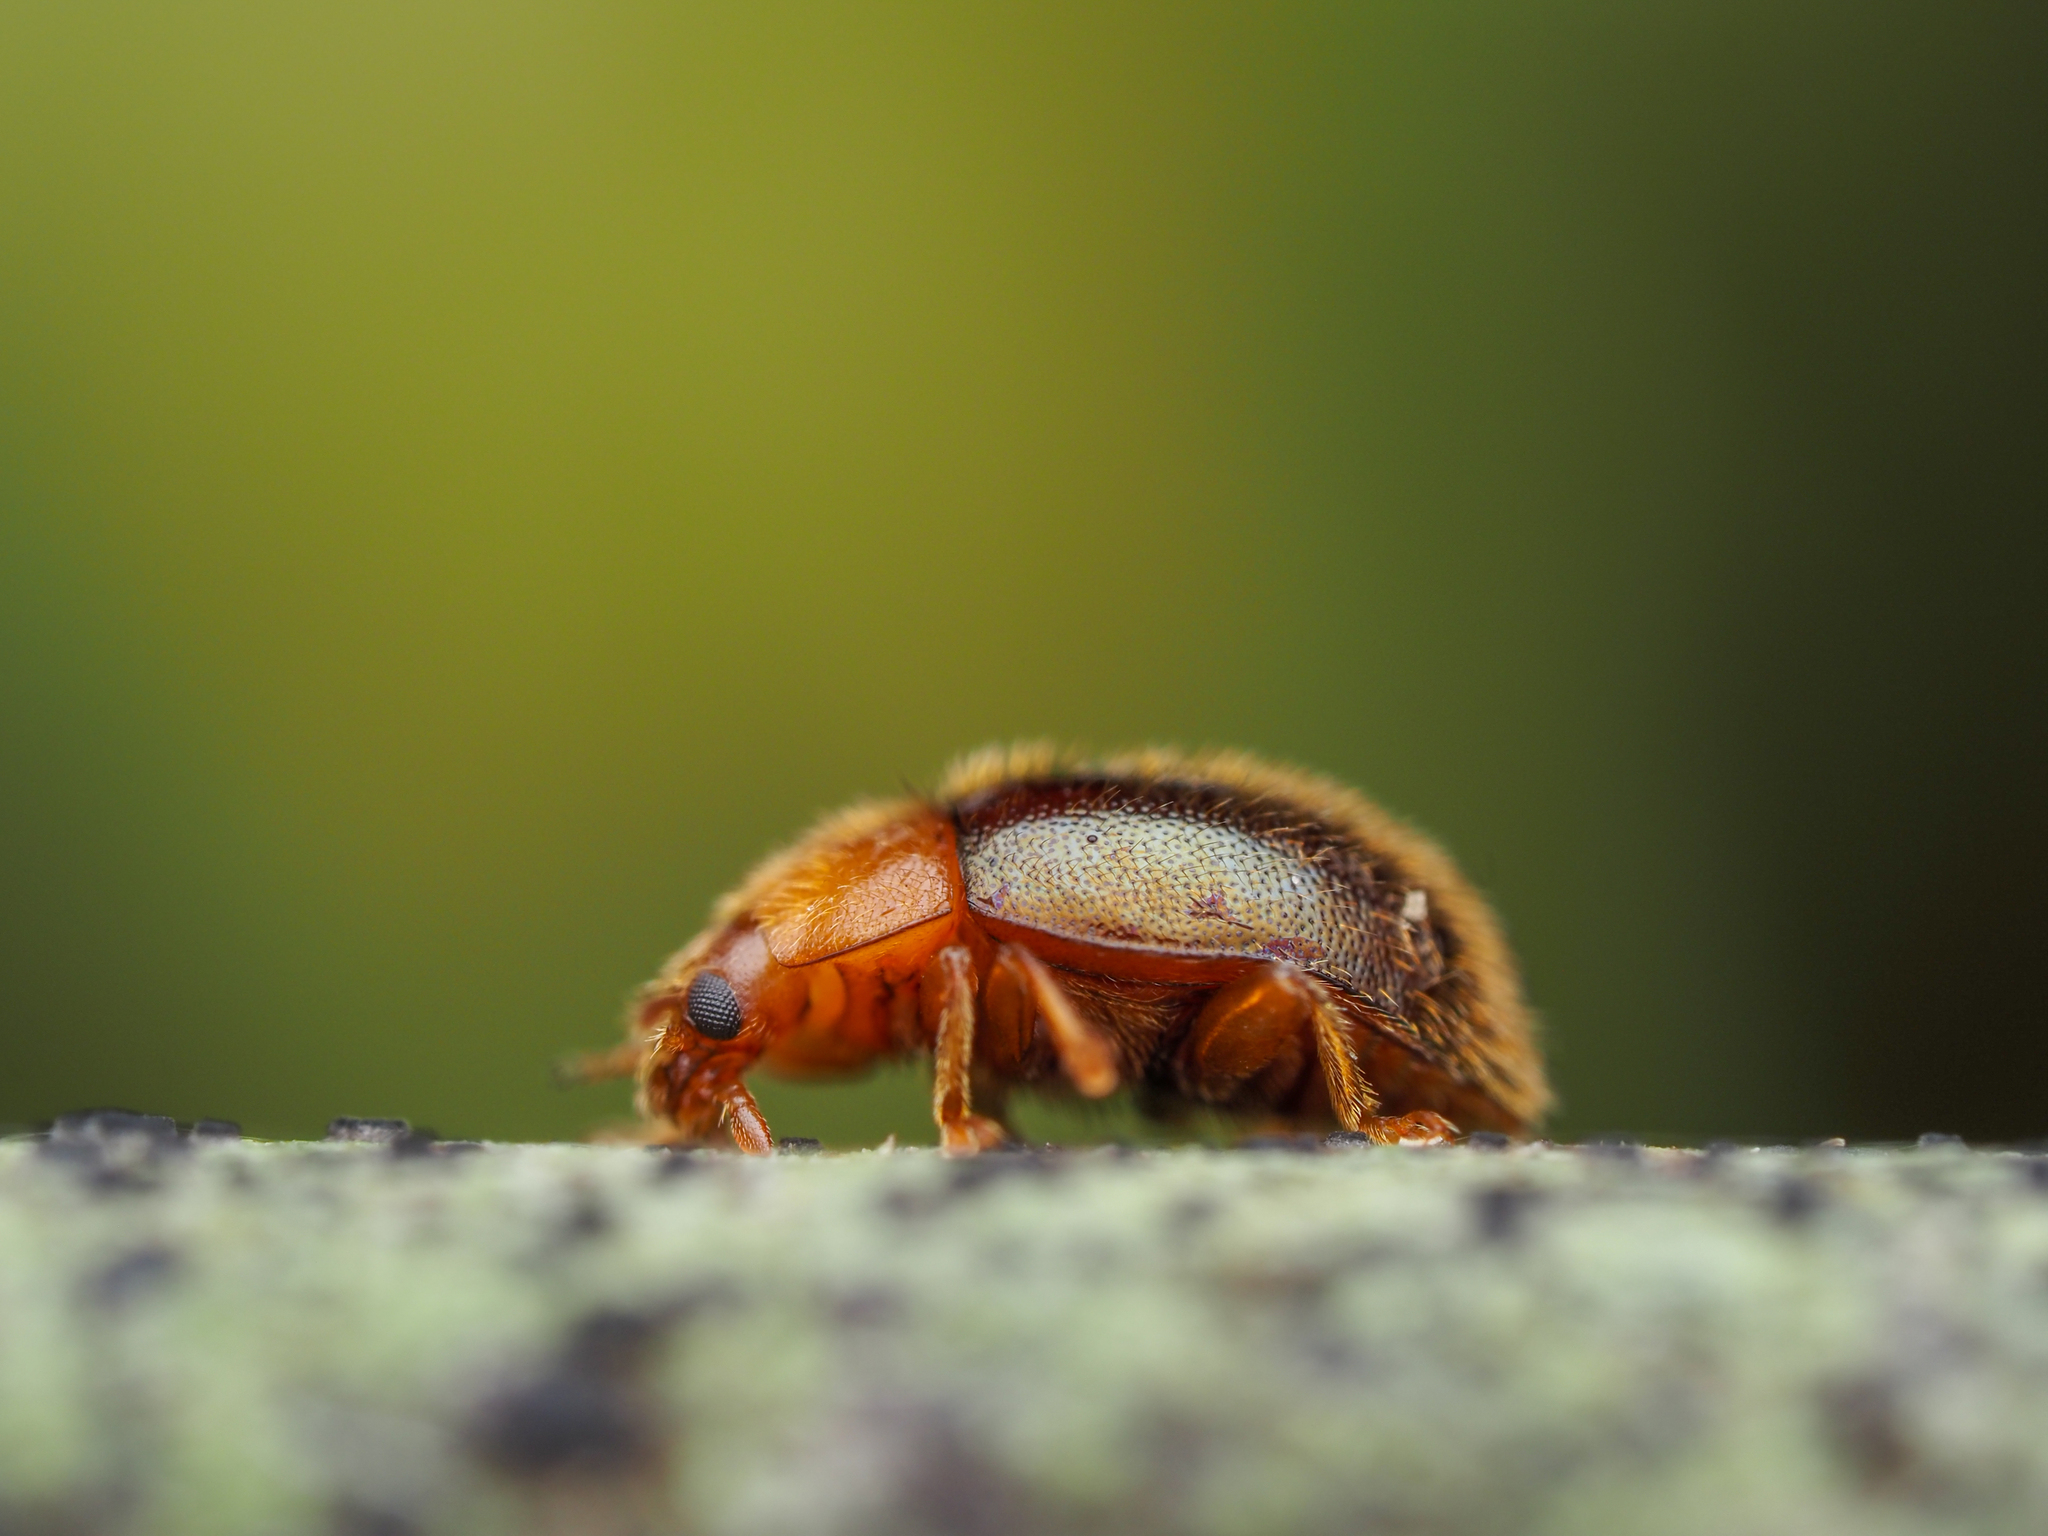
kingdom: Animalia
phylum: Arthropoda
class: Insecta
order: Coleoptera
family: Coccinellidae
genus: Adoxellus
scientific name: Adoxellus
